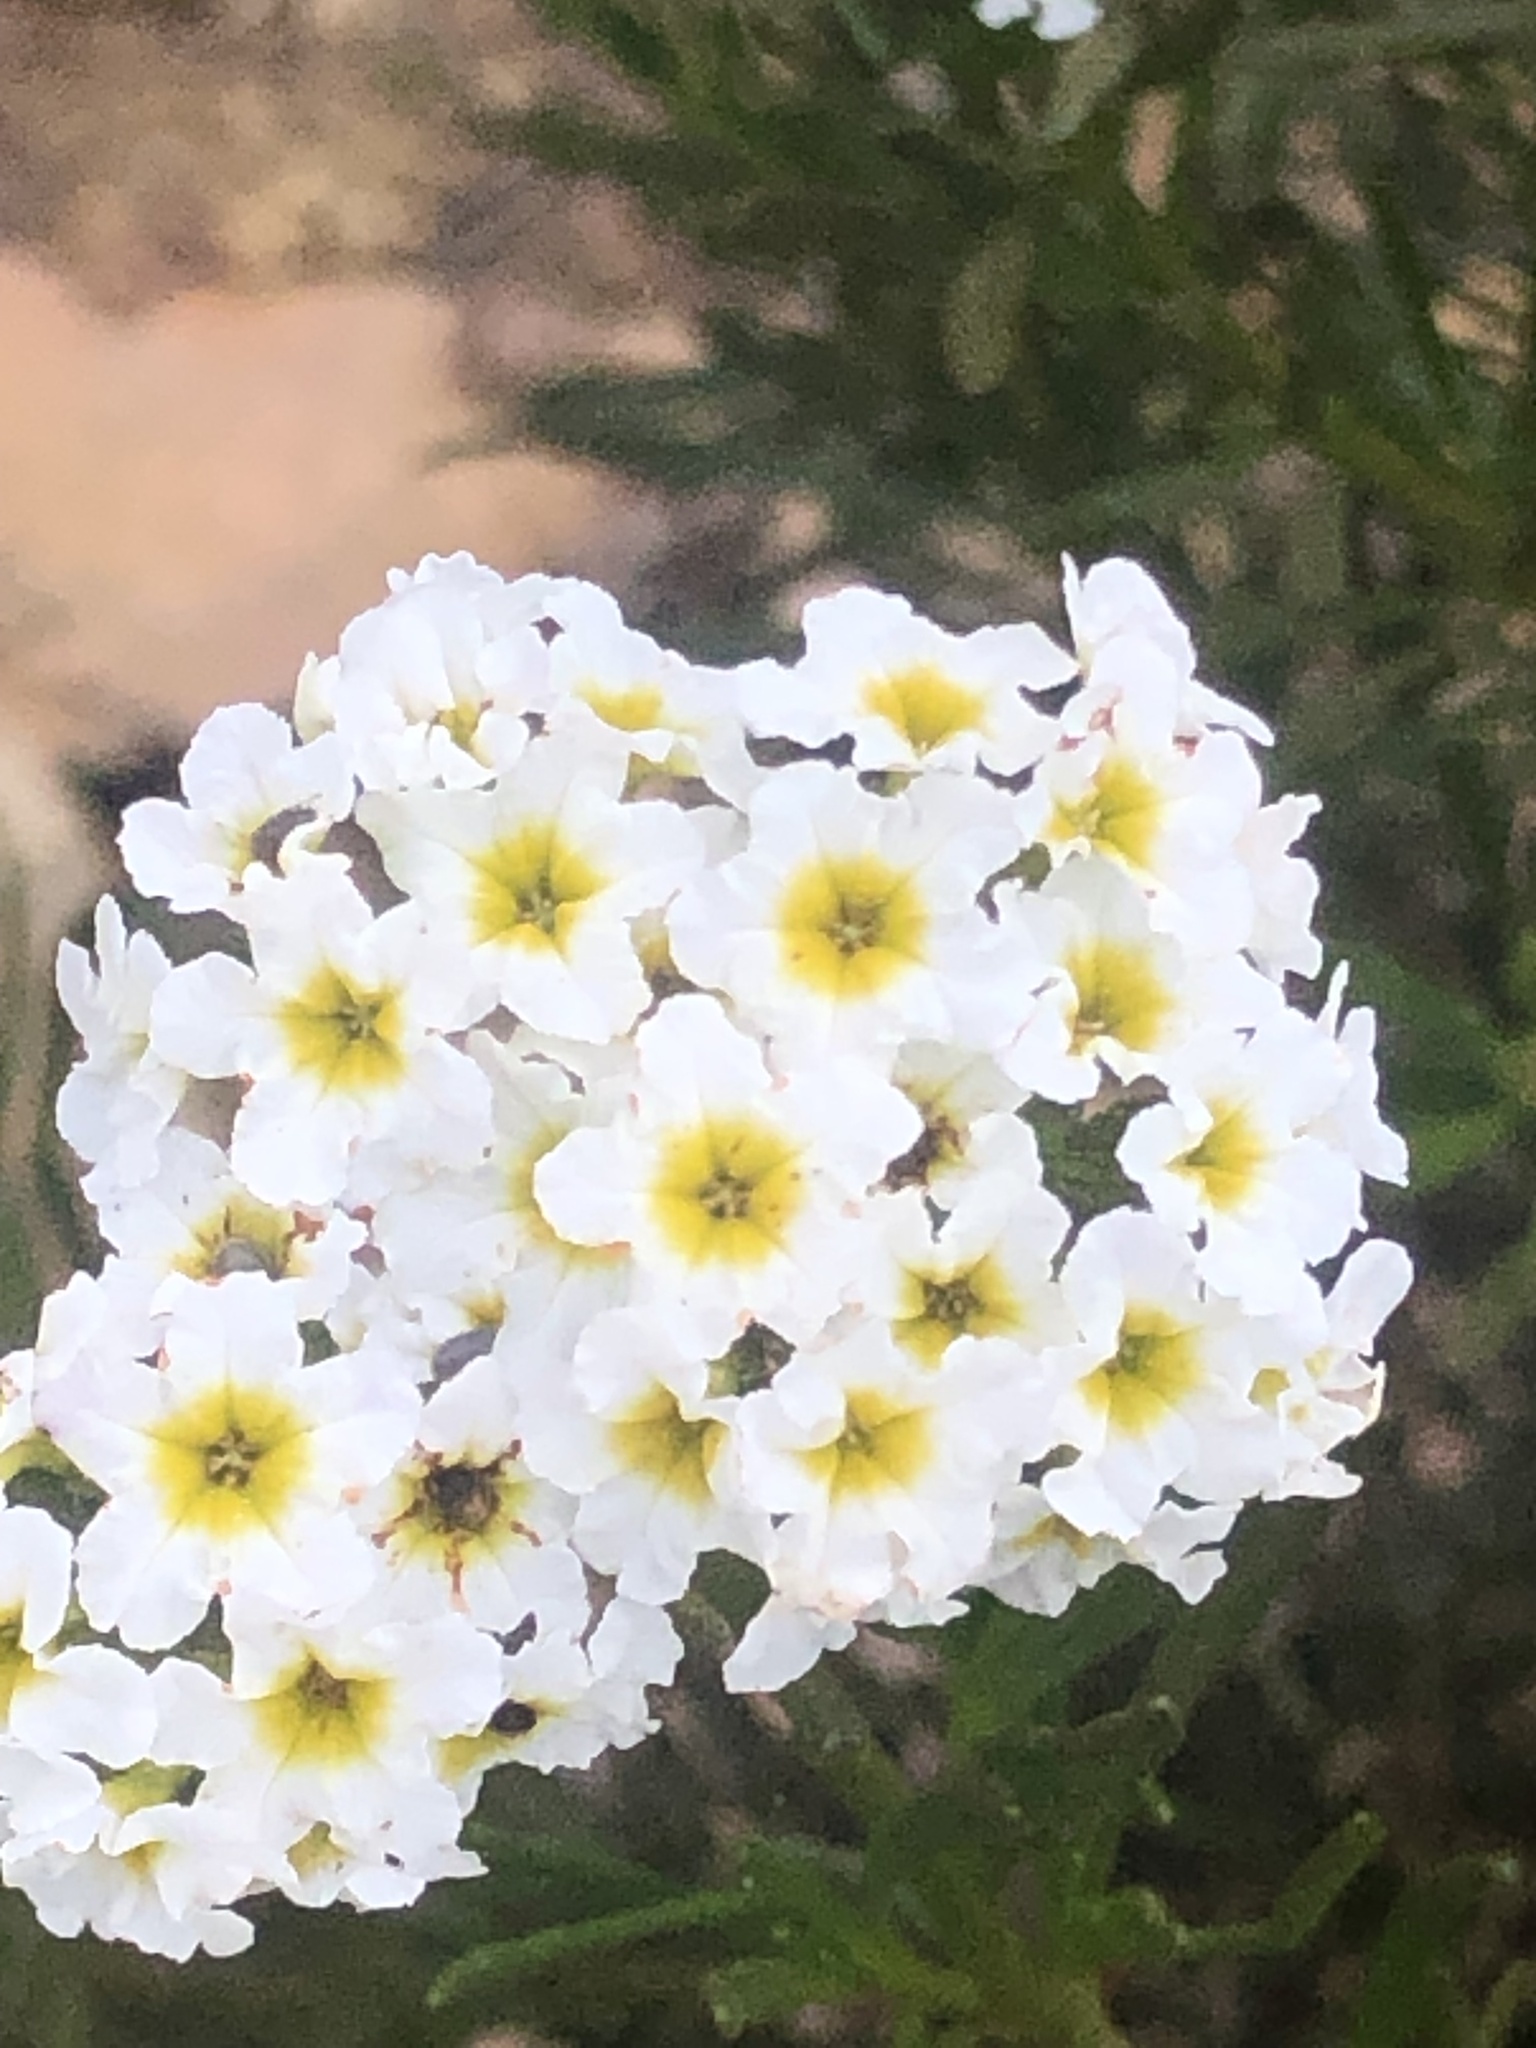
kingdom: Plantae
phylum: Tracheophyta
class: Magnoliopsida
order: Boraginales
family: Heliotropiaceae
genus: Heliotropium
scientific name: Heliotropium stenophyllum
